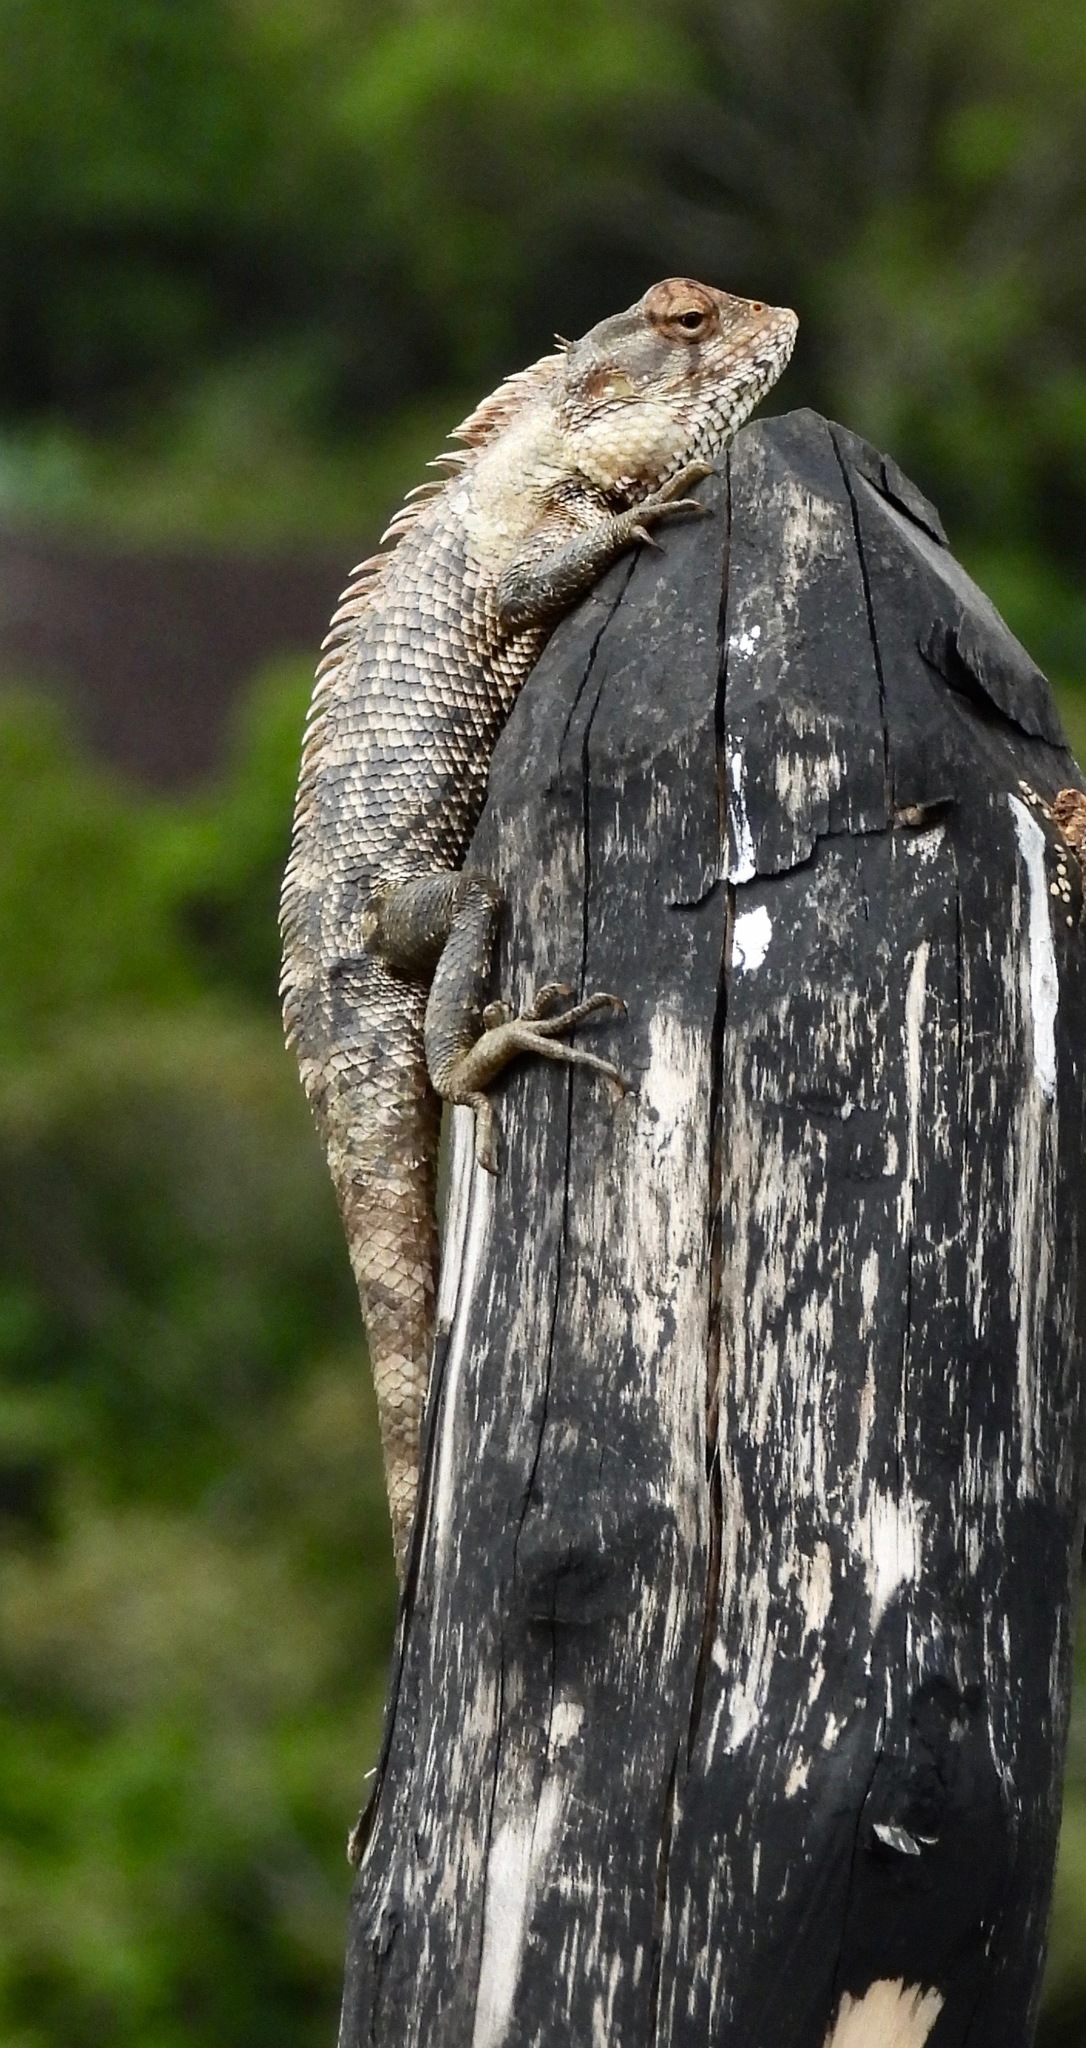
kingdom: Animalia
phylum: Chordata
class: Squamata
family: Agamidae
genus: Calotes
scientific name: Calotes versicolor
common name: Oriental garden lizard
